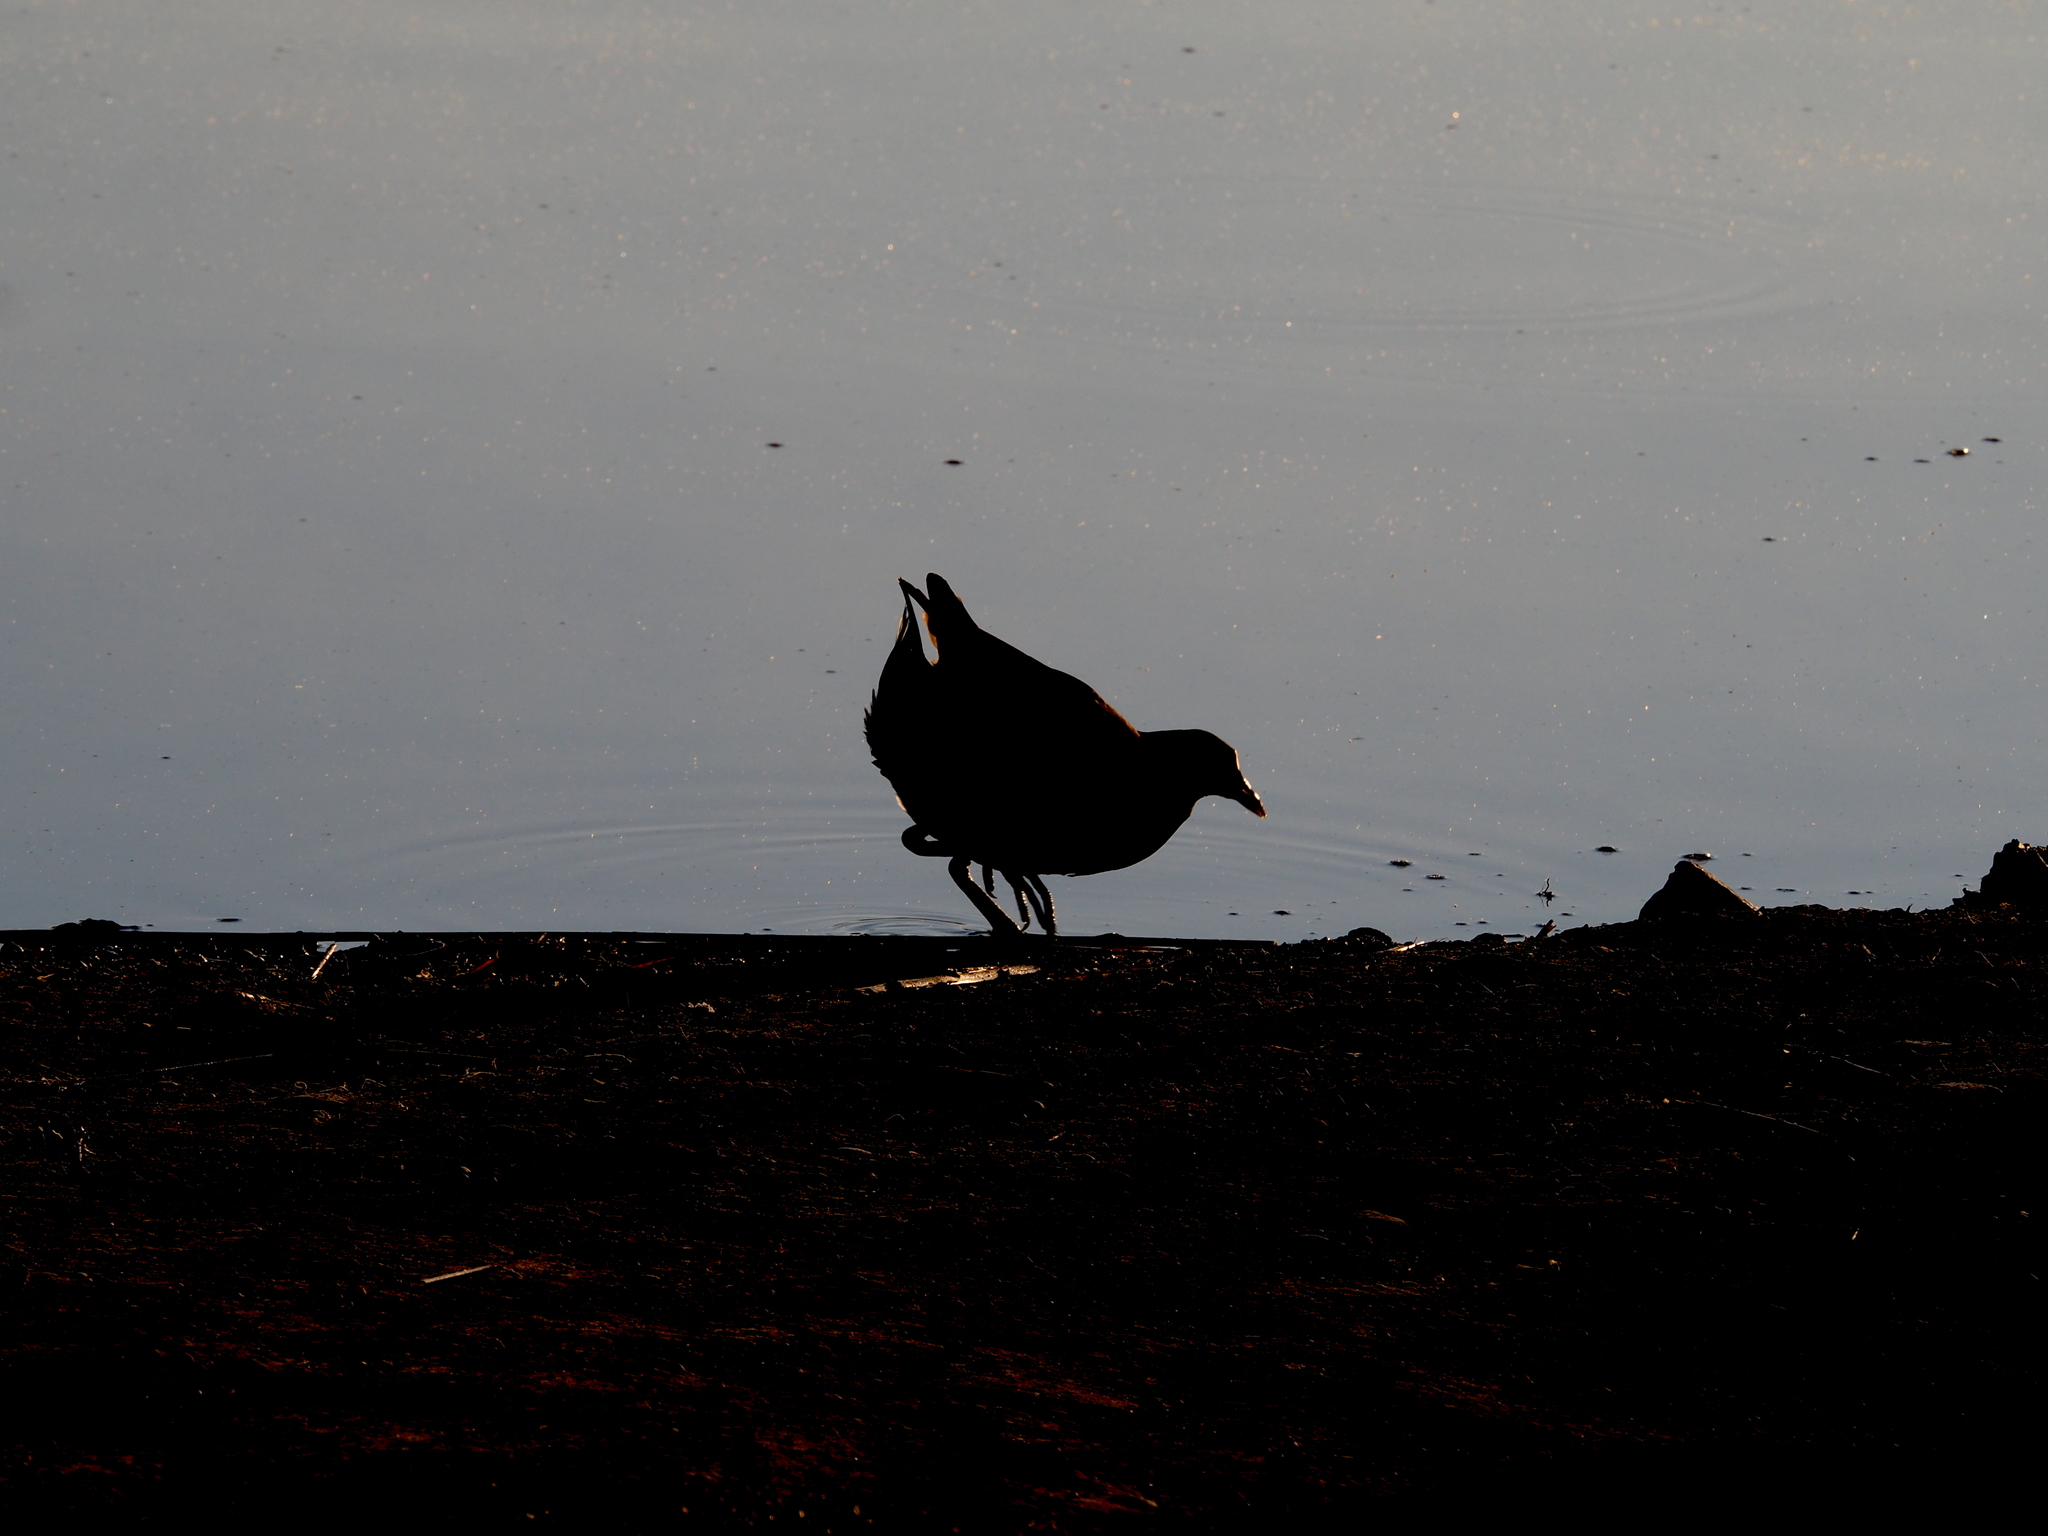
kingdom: Animalia
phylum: Chordata
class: Aves
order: Gruiformes
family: Rallidae
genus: Gallinula
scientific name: Gallinula chloropus
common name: Common moorhen
